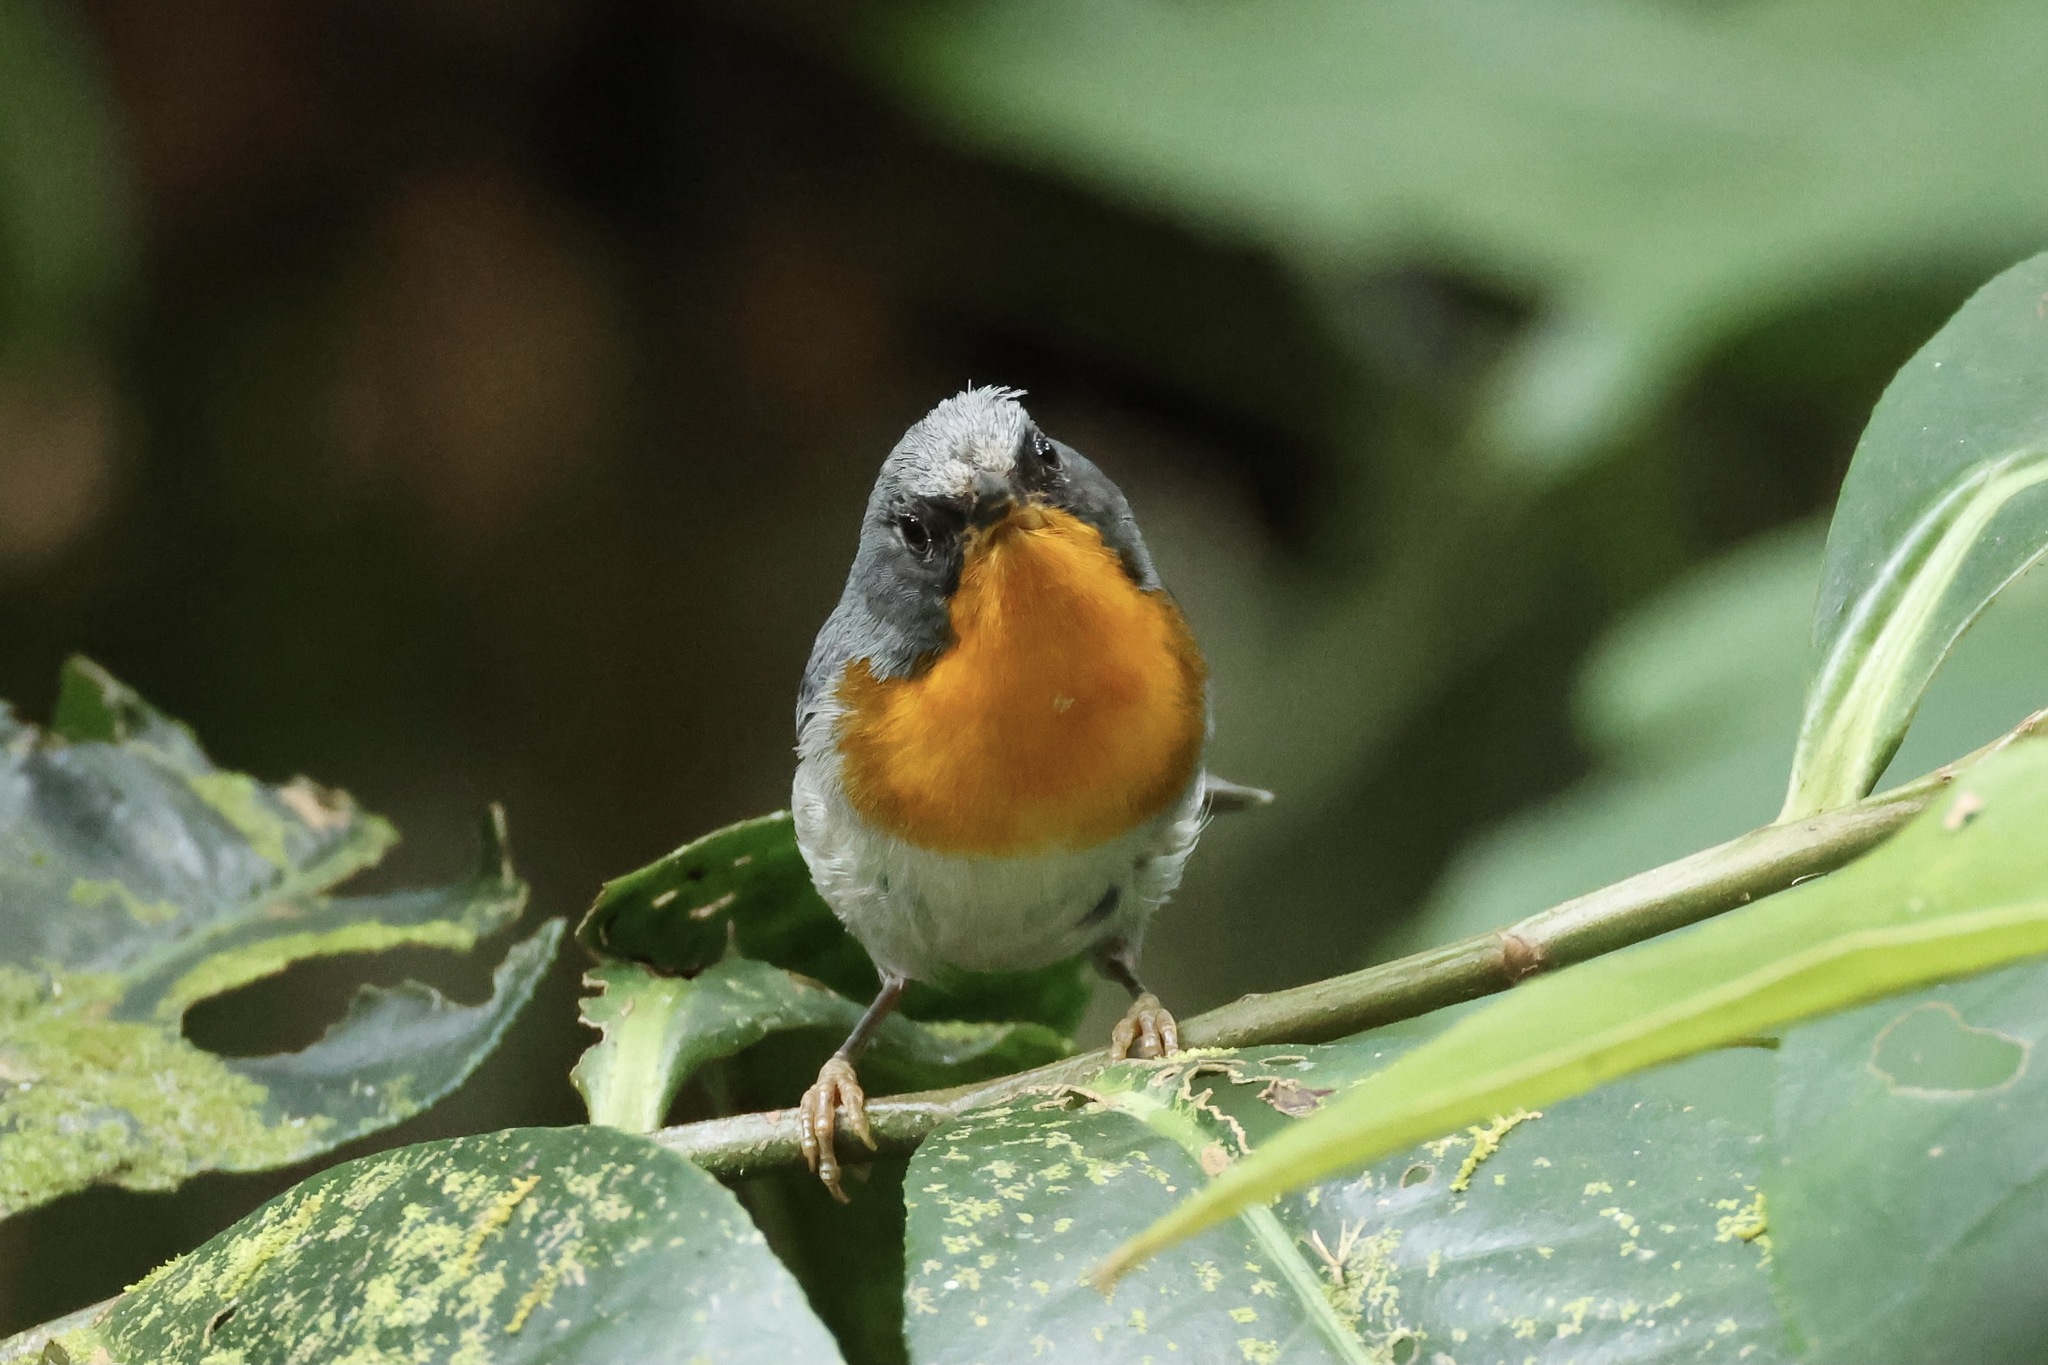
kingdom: Animalia
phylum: Chordata
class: Aves
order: Passeriformes
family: Parulidae
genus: Oreothlypis
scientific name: Oreothlypis gutturalis
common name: Flame-throated warbler
